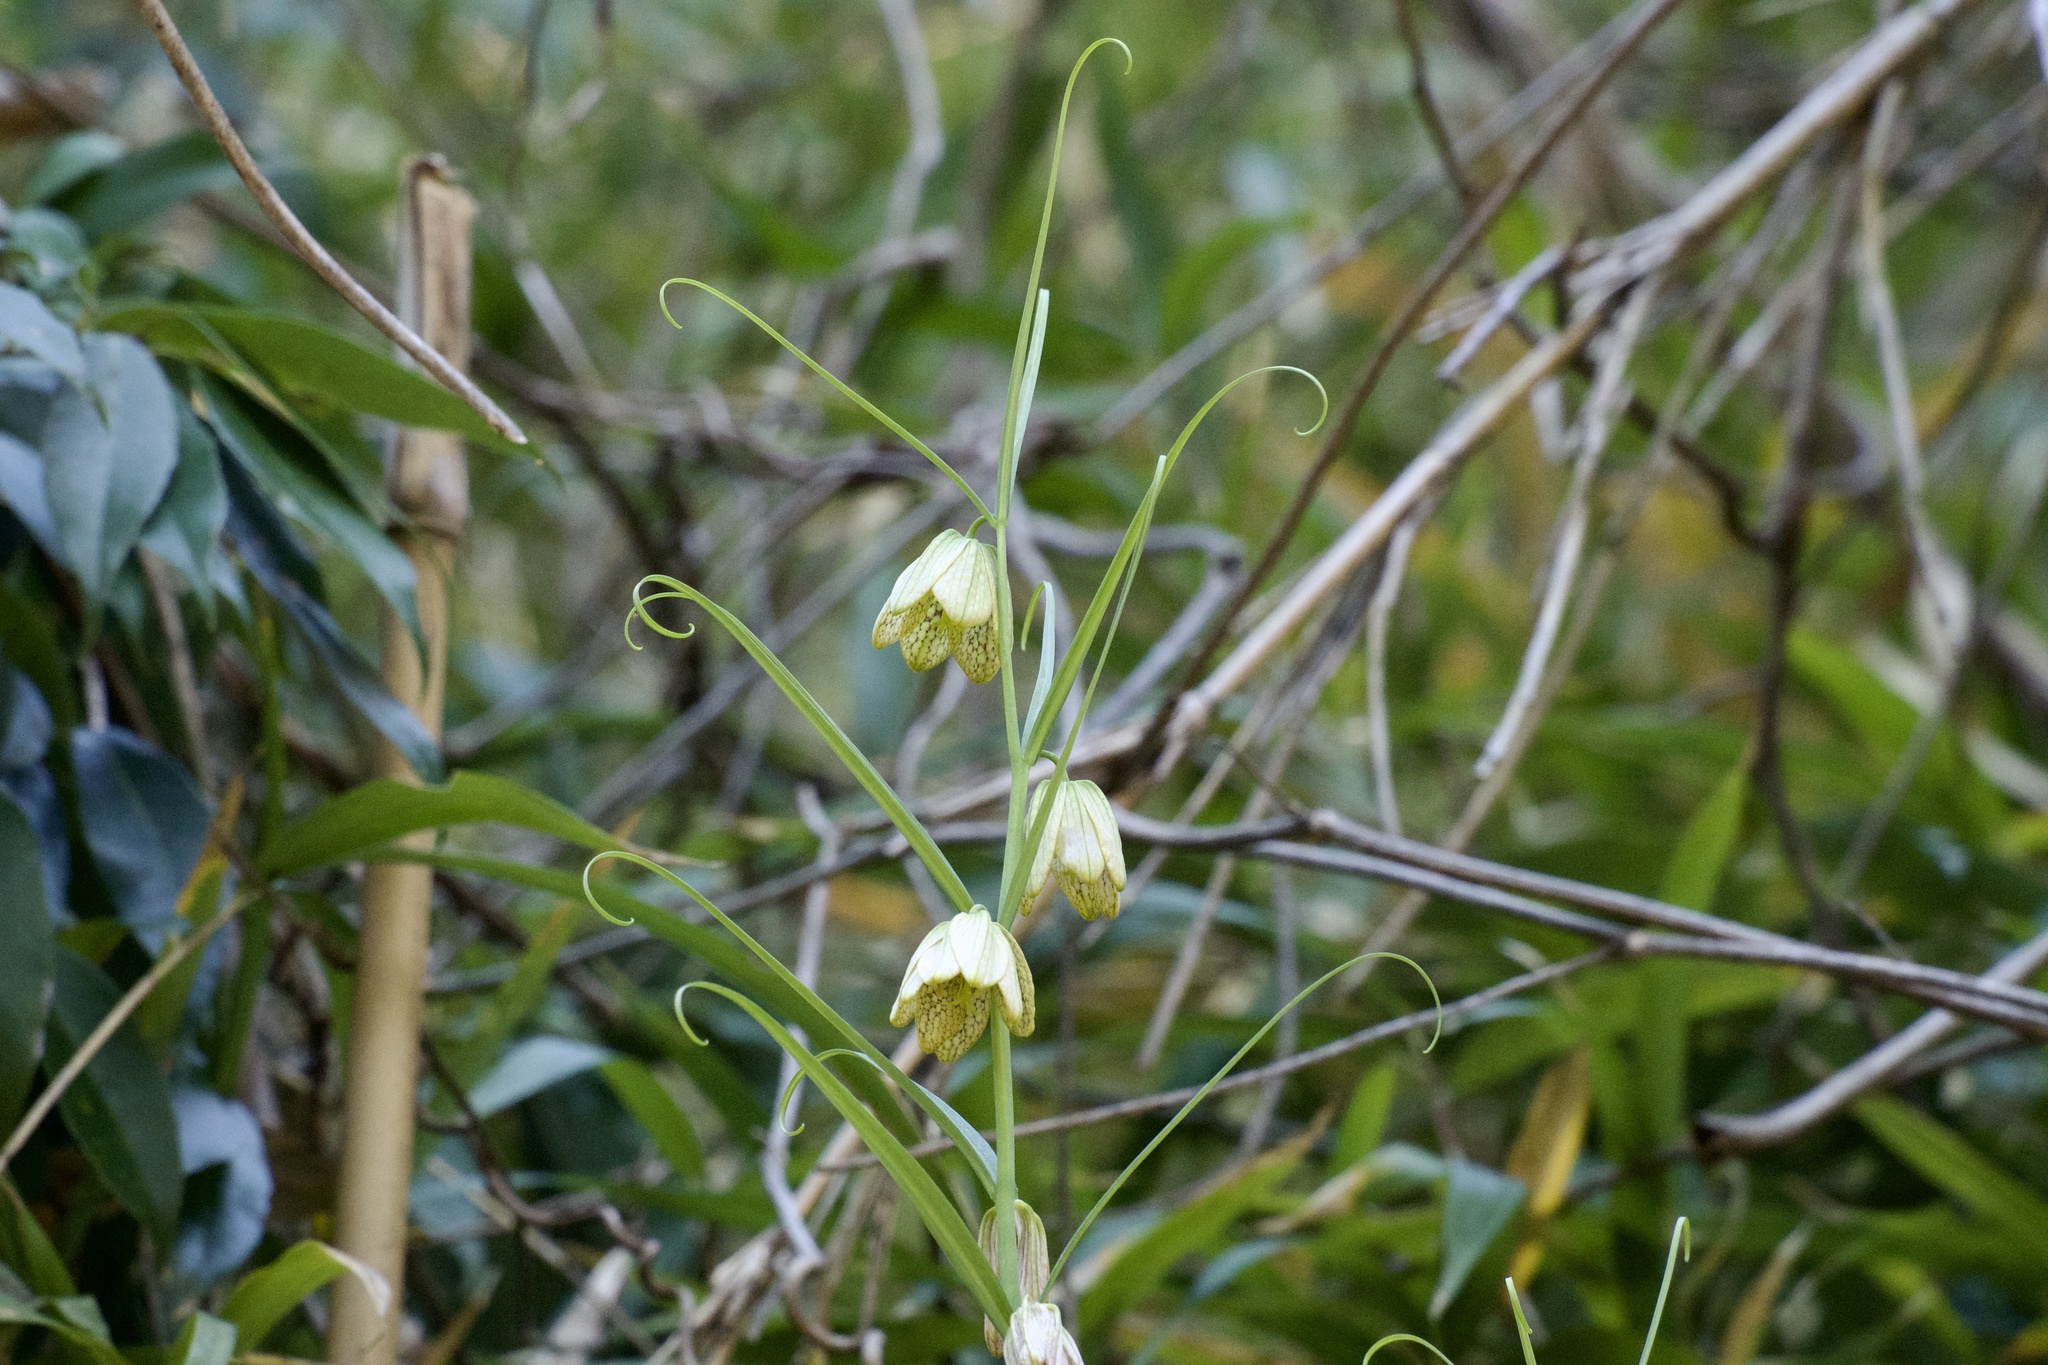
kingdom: Plantae
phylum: Tracheophyta
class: Liliopsida
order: Liliales
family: Liliaceae
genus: Fritillaria
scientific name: Fritillaria thunbergii
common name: Zhejiang fritillary
